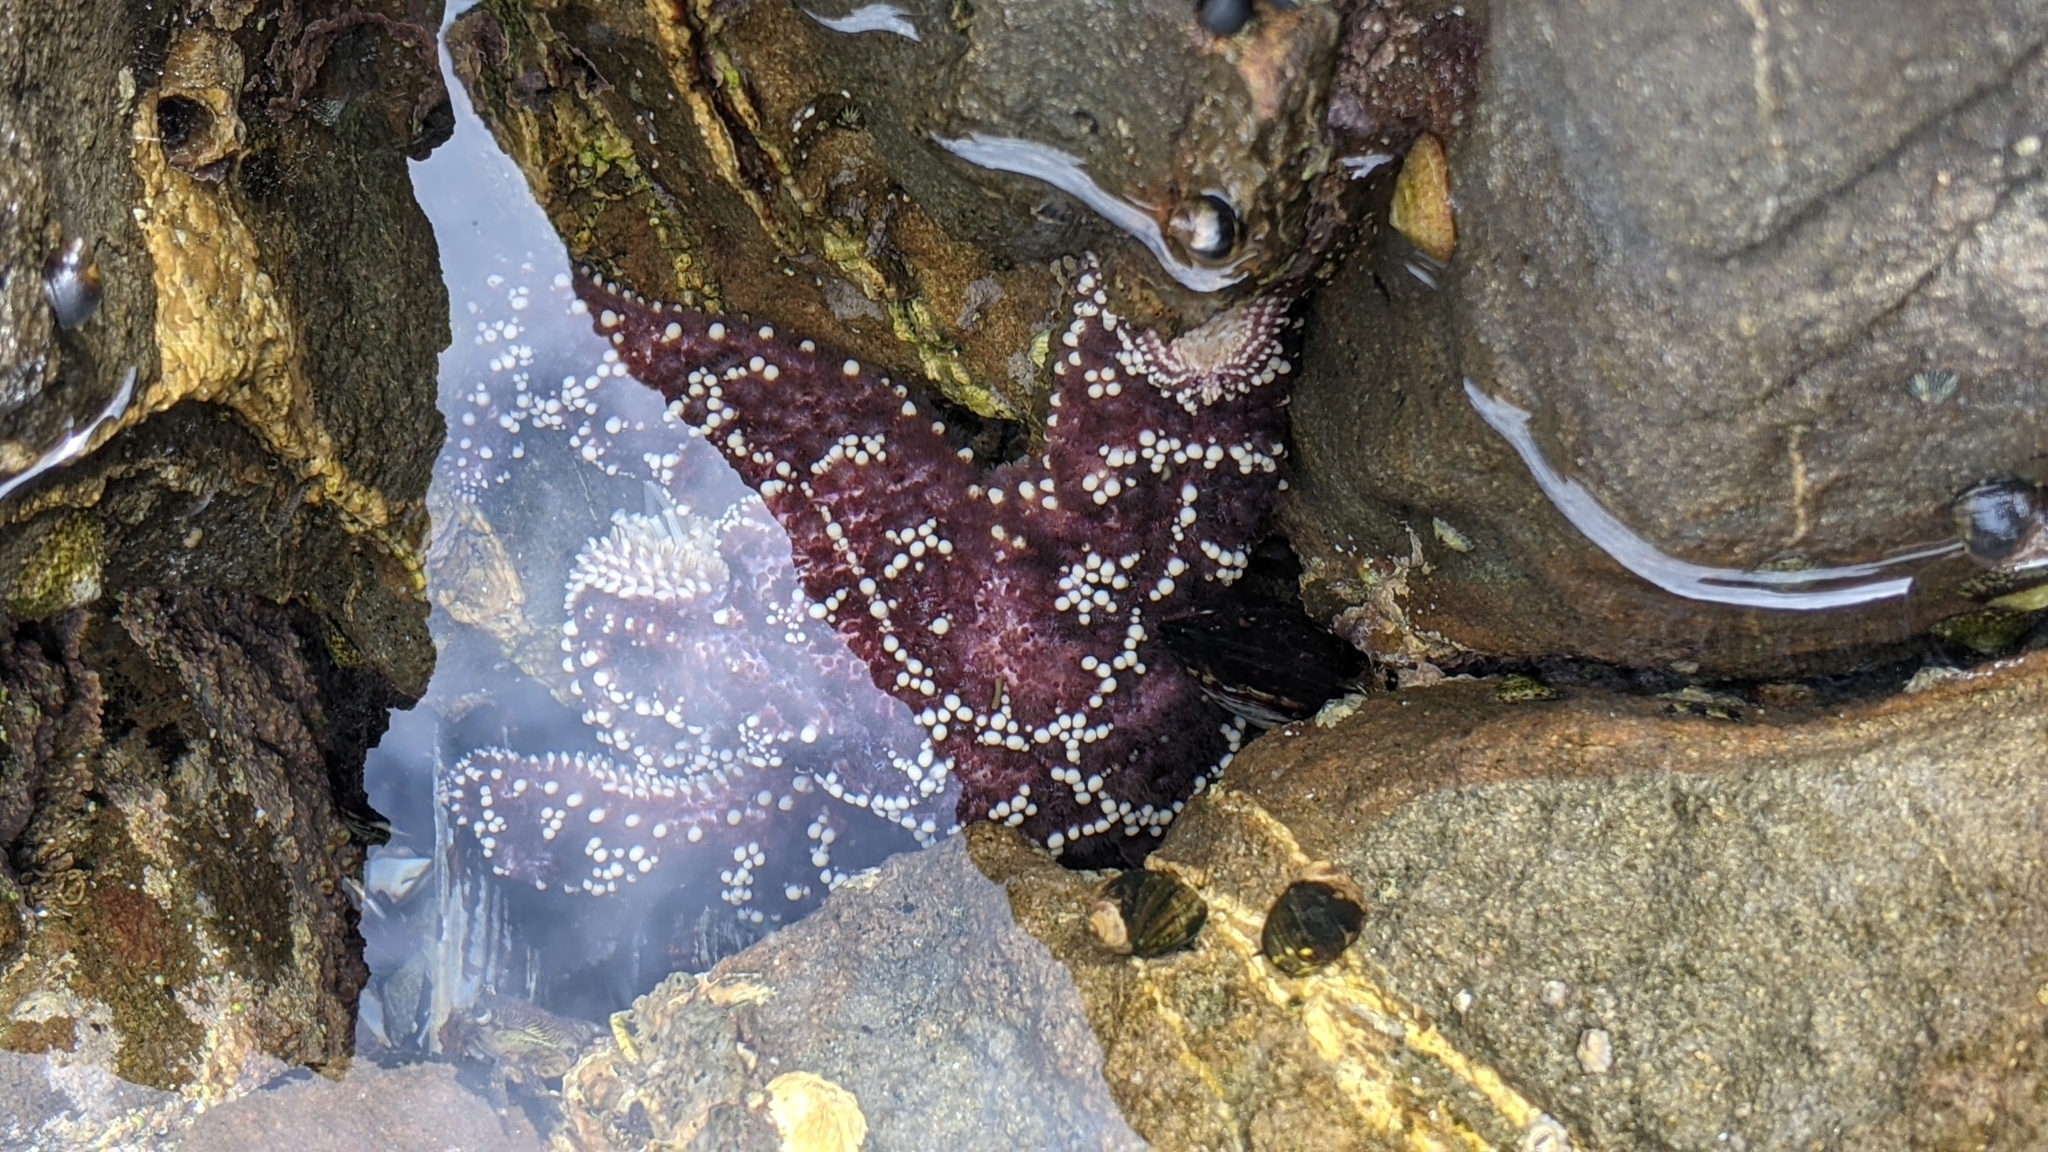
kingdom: Animalia
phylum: Echinodermata
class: Asteroidea
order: Forcipulatida
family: Asteriidae
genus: Pisaster
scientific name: Pisaster ochraceus
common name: Ochre stars
